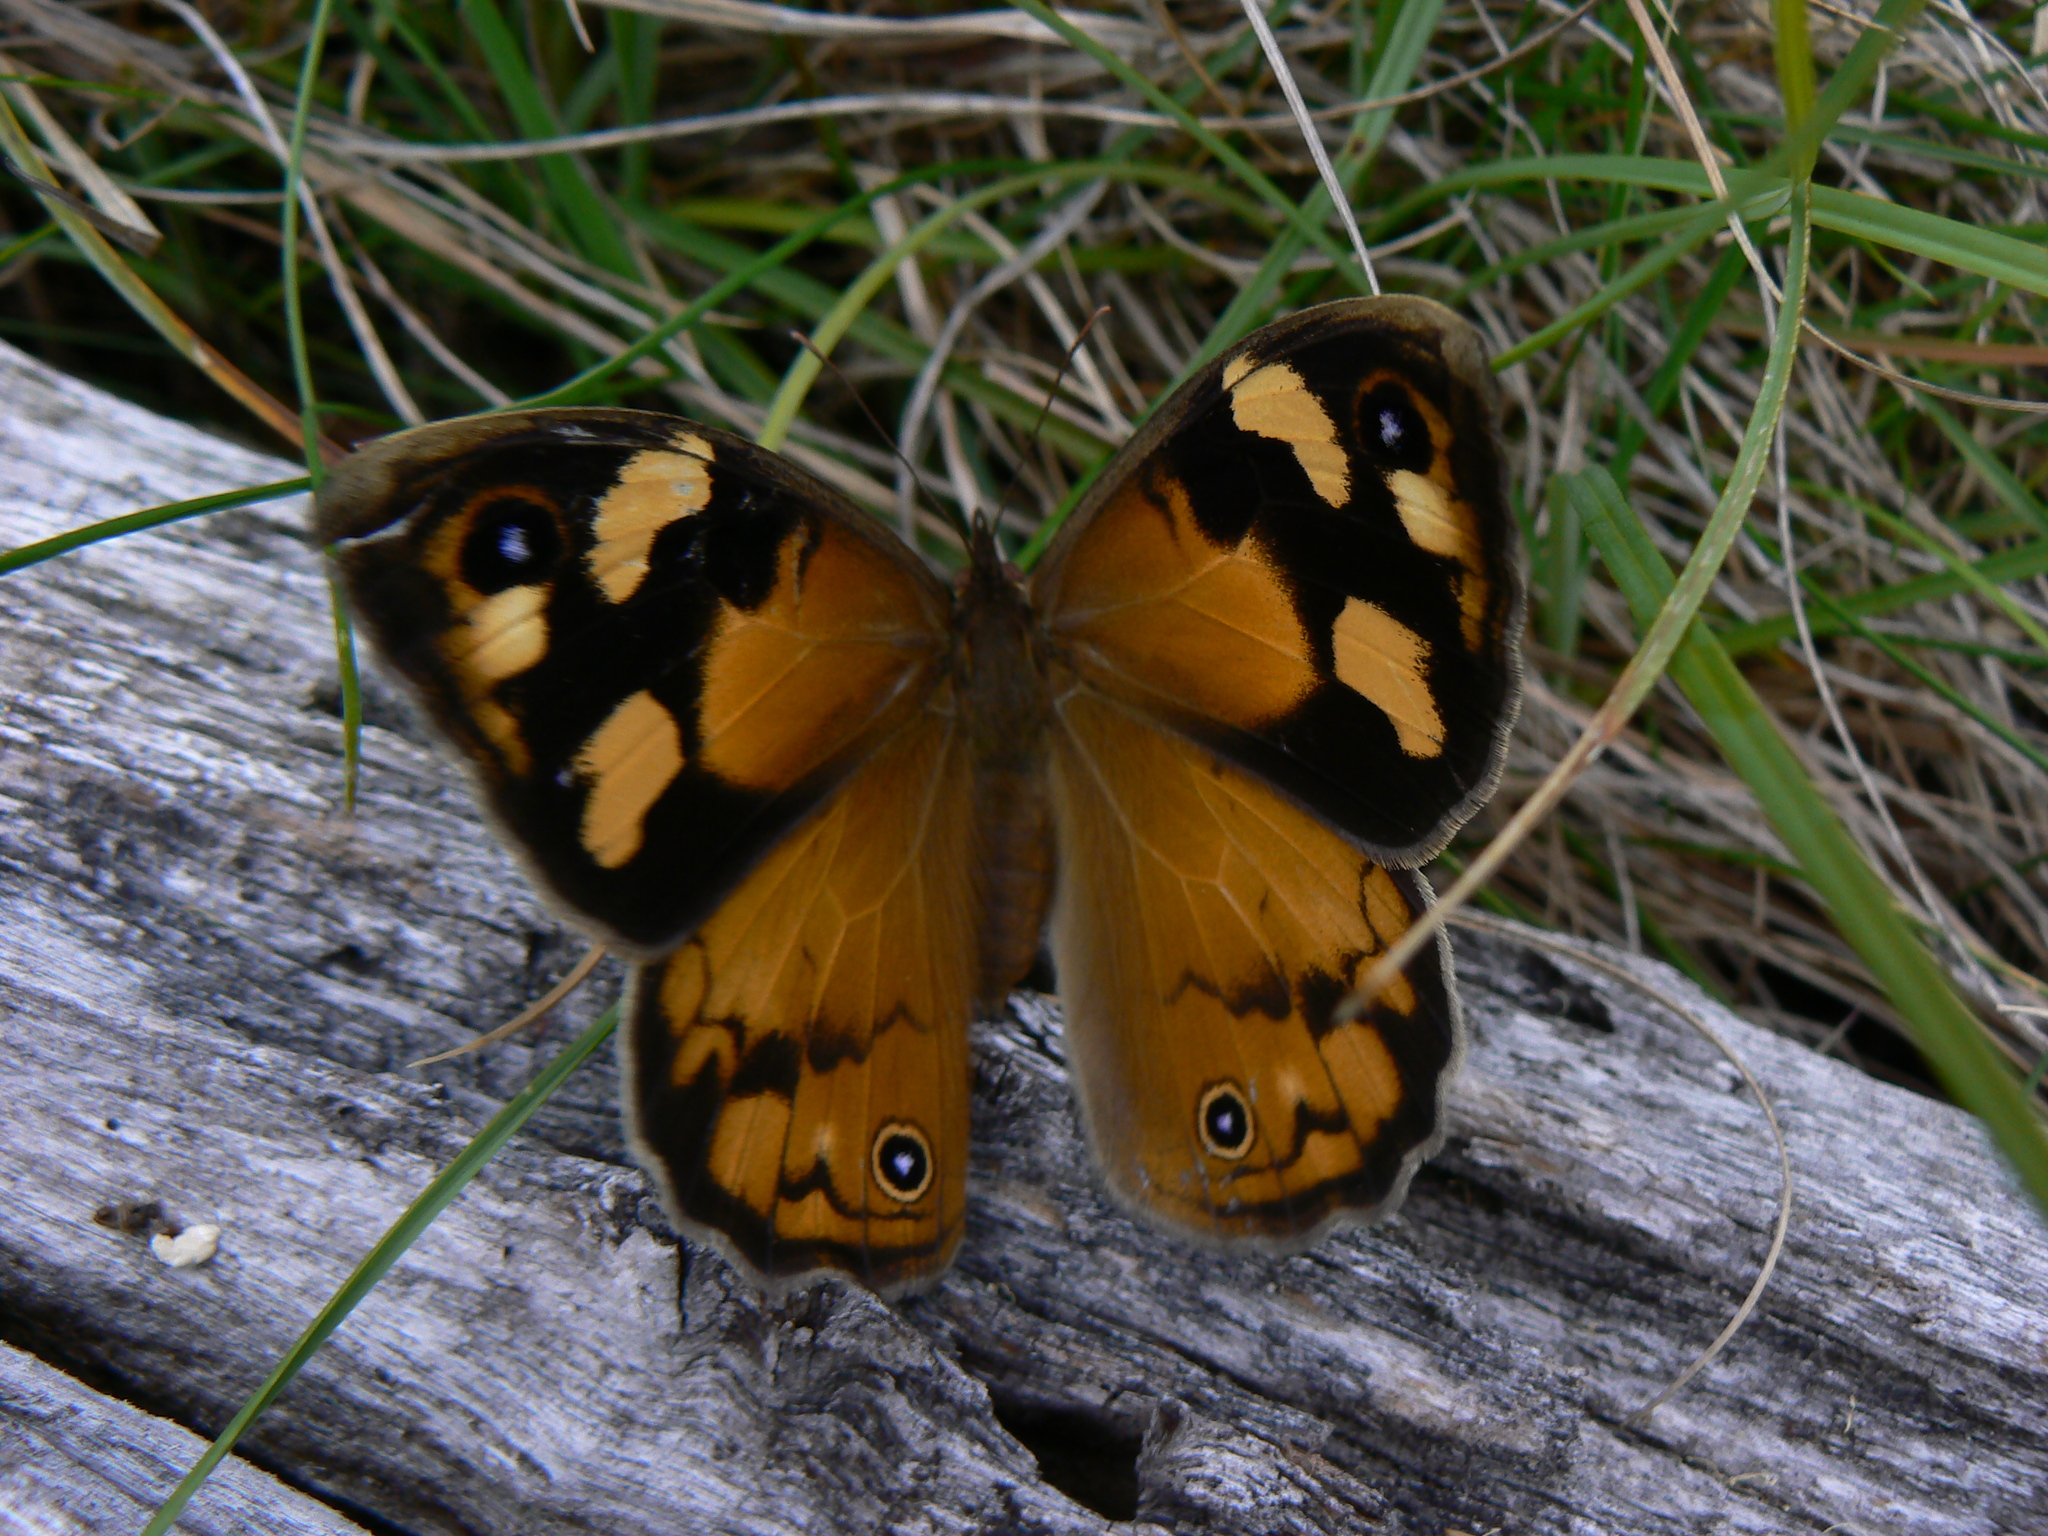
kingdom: Animalia
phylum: Arthropoda
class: Insecta
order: Lepidoptera
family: Nymphalidae
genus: Heteronympha
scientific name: Heteronympha merope
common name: Common brown
